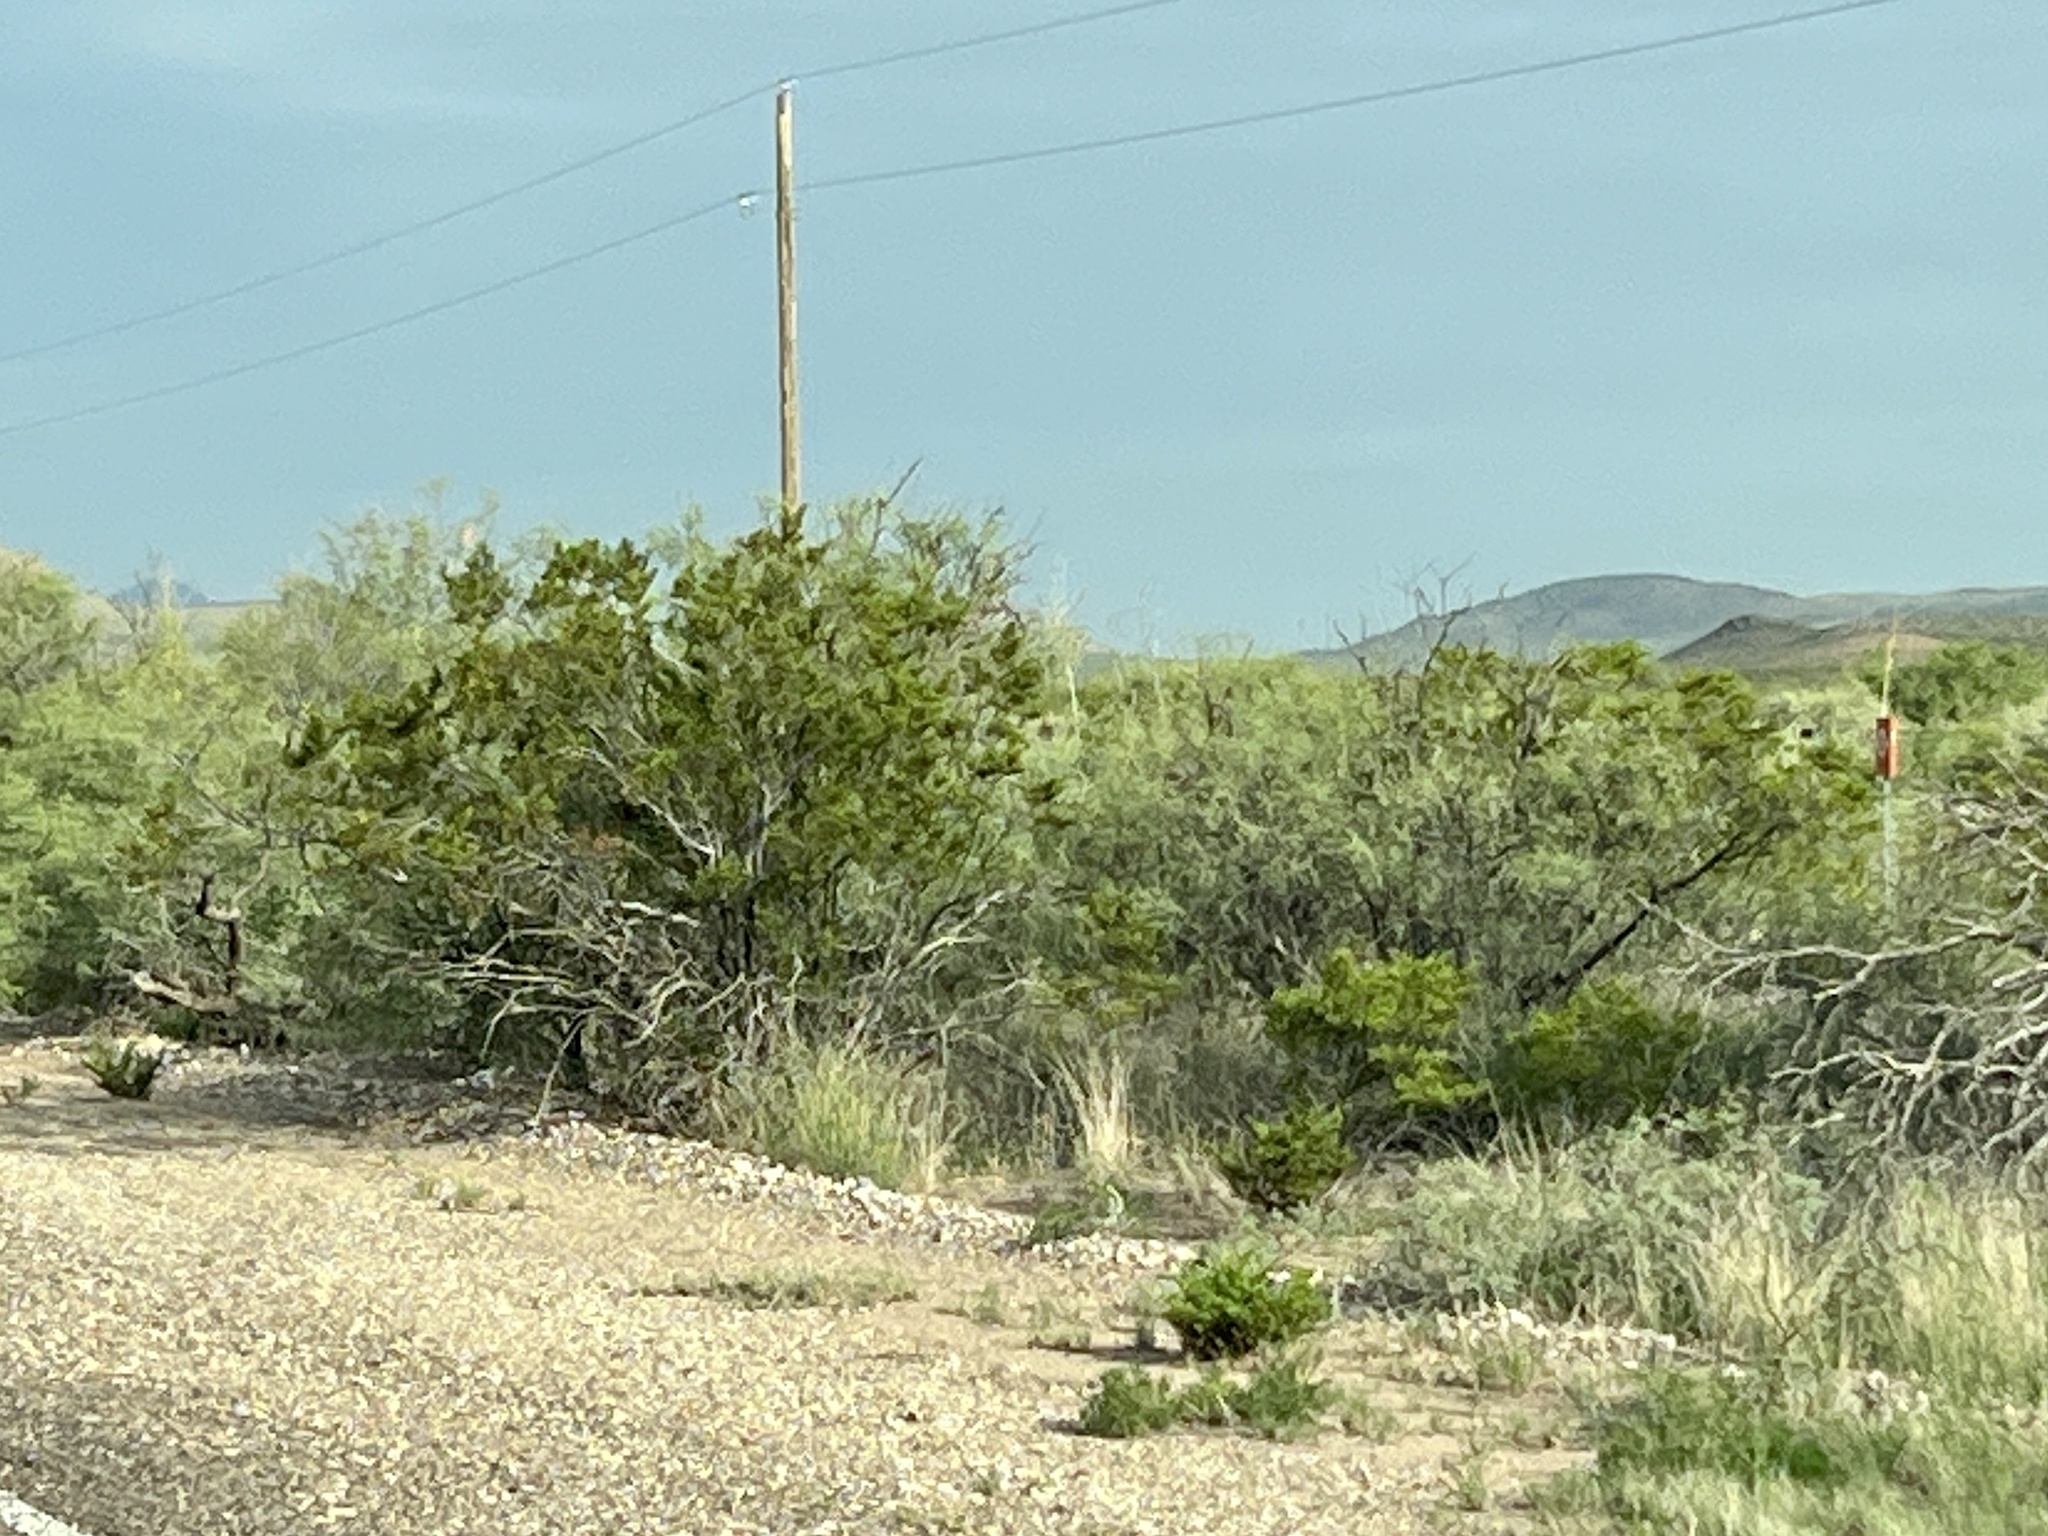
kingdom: Plantae
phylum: Tracheophyta
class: Magnoliopsida
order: Zygophyllales
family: Zygophyllaceae
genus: Larrea
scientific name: Larrea tridentata
